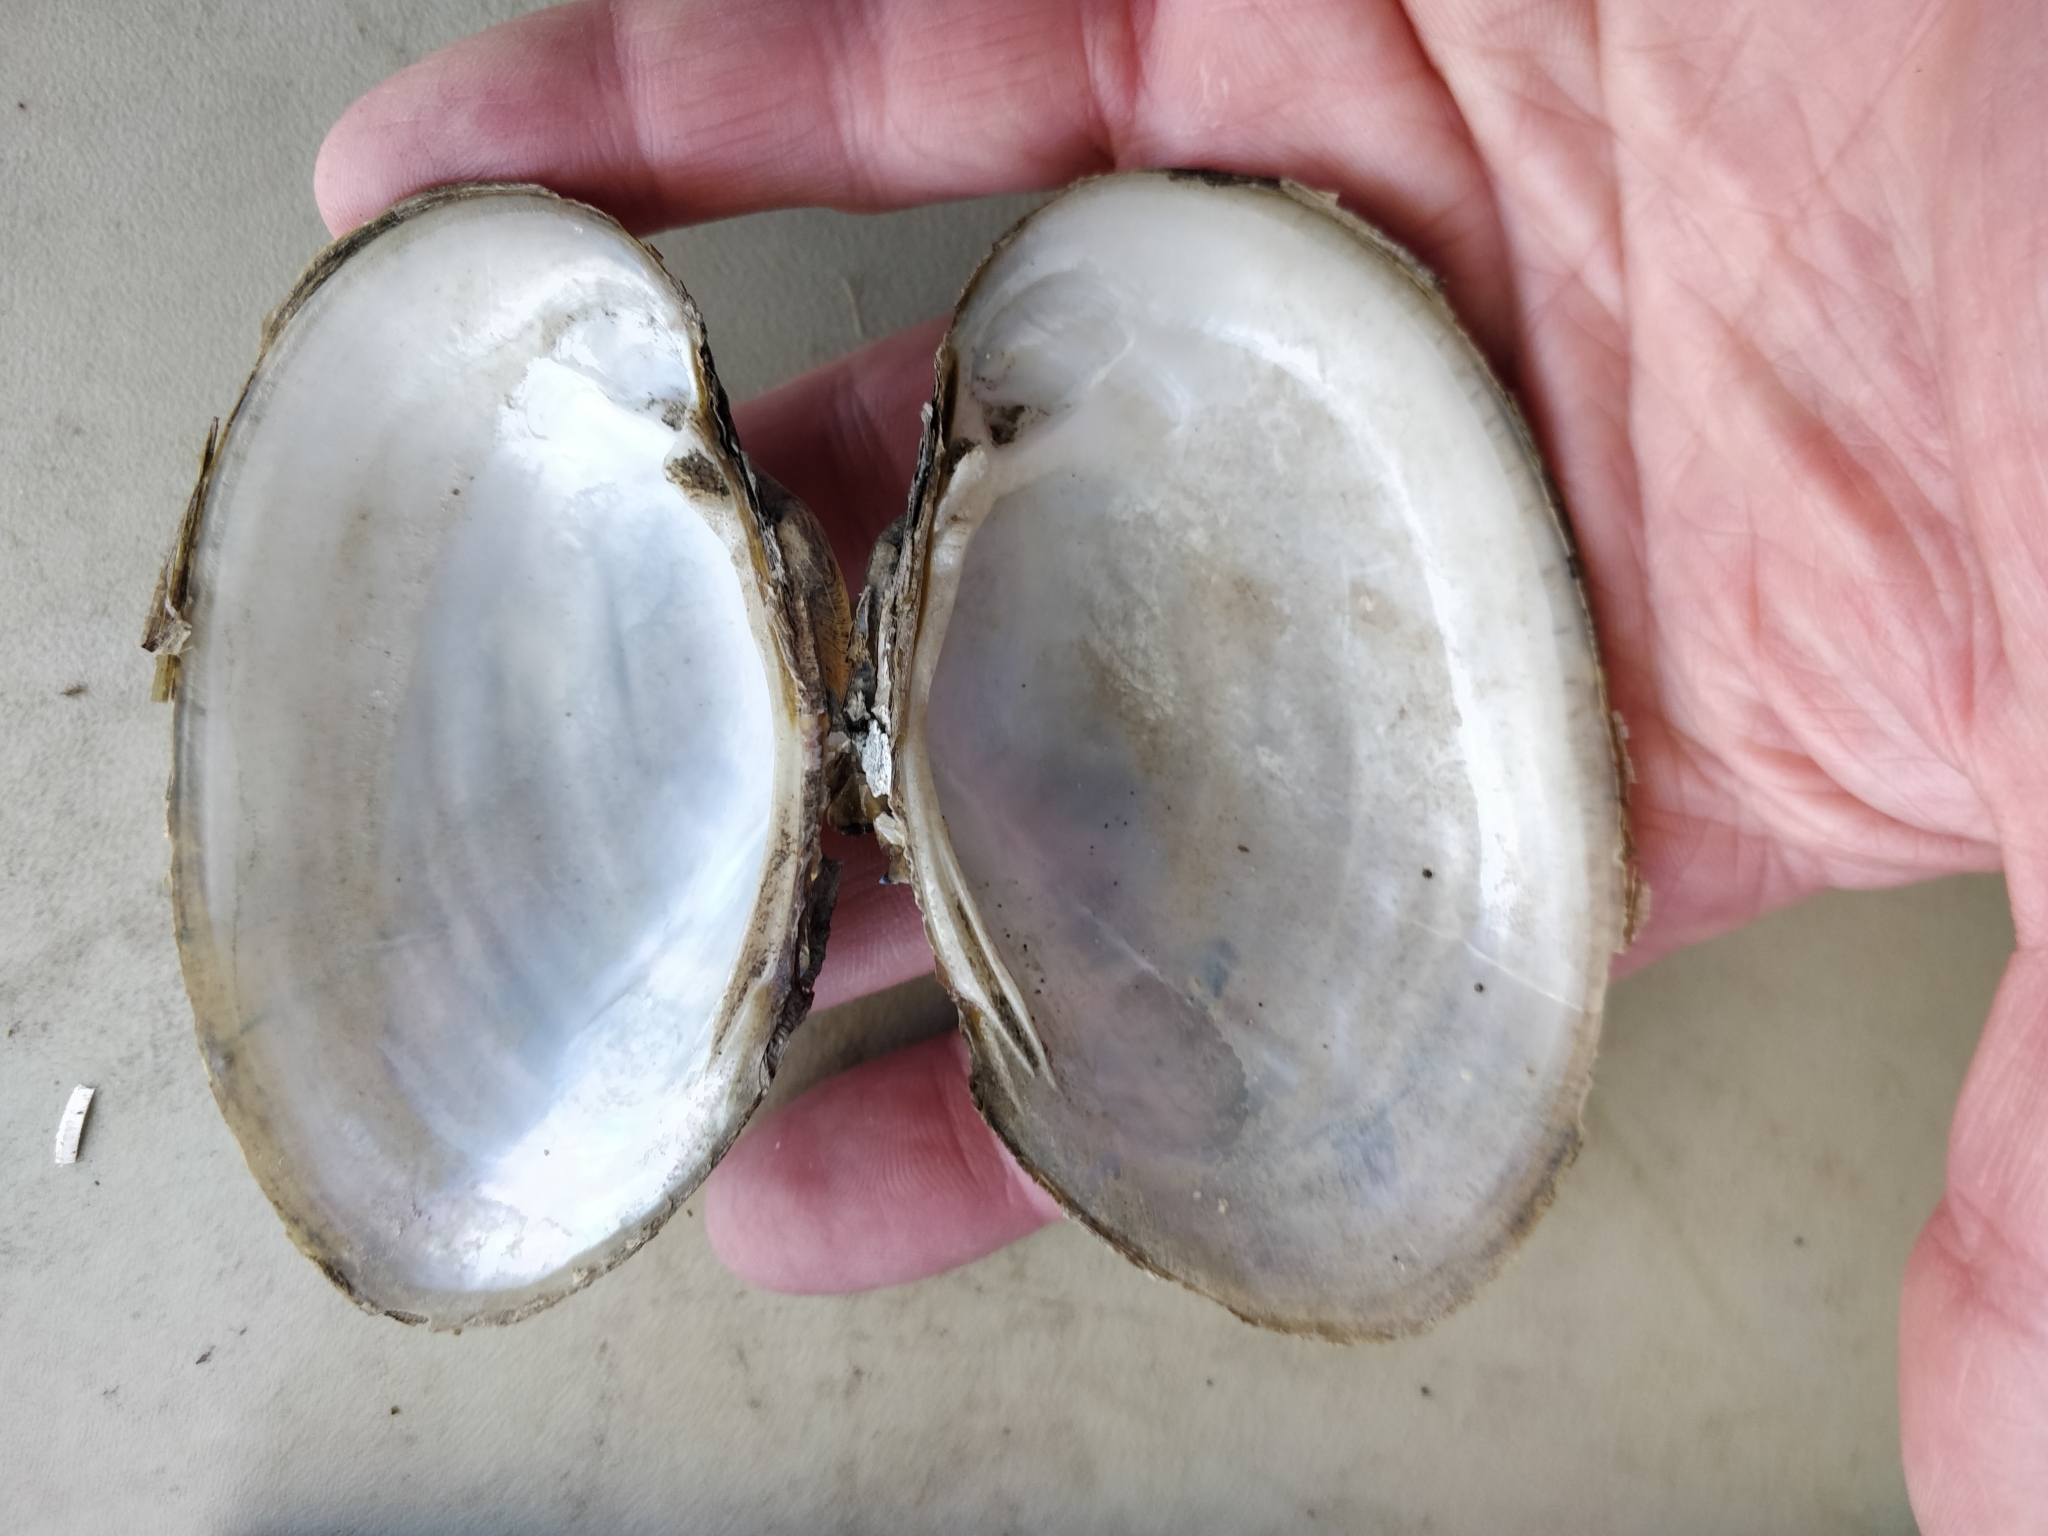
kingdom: Animalia
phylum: Mollusca
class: Bivalvia
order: Unionida
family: Unionidae
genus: Lampsilis
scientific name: Lampsilis cardium
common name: Plain pocketbook
